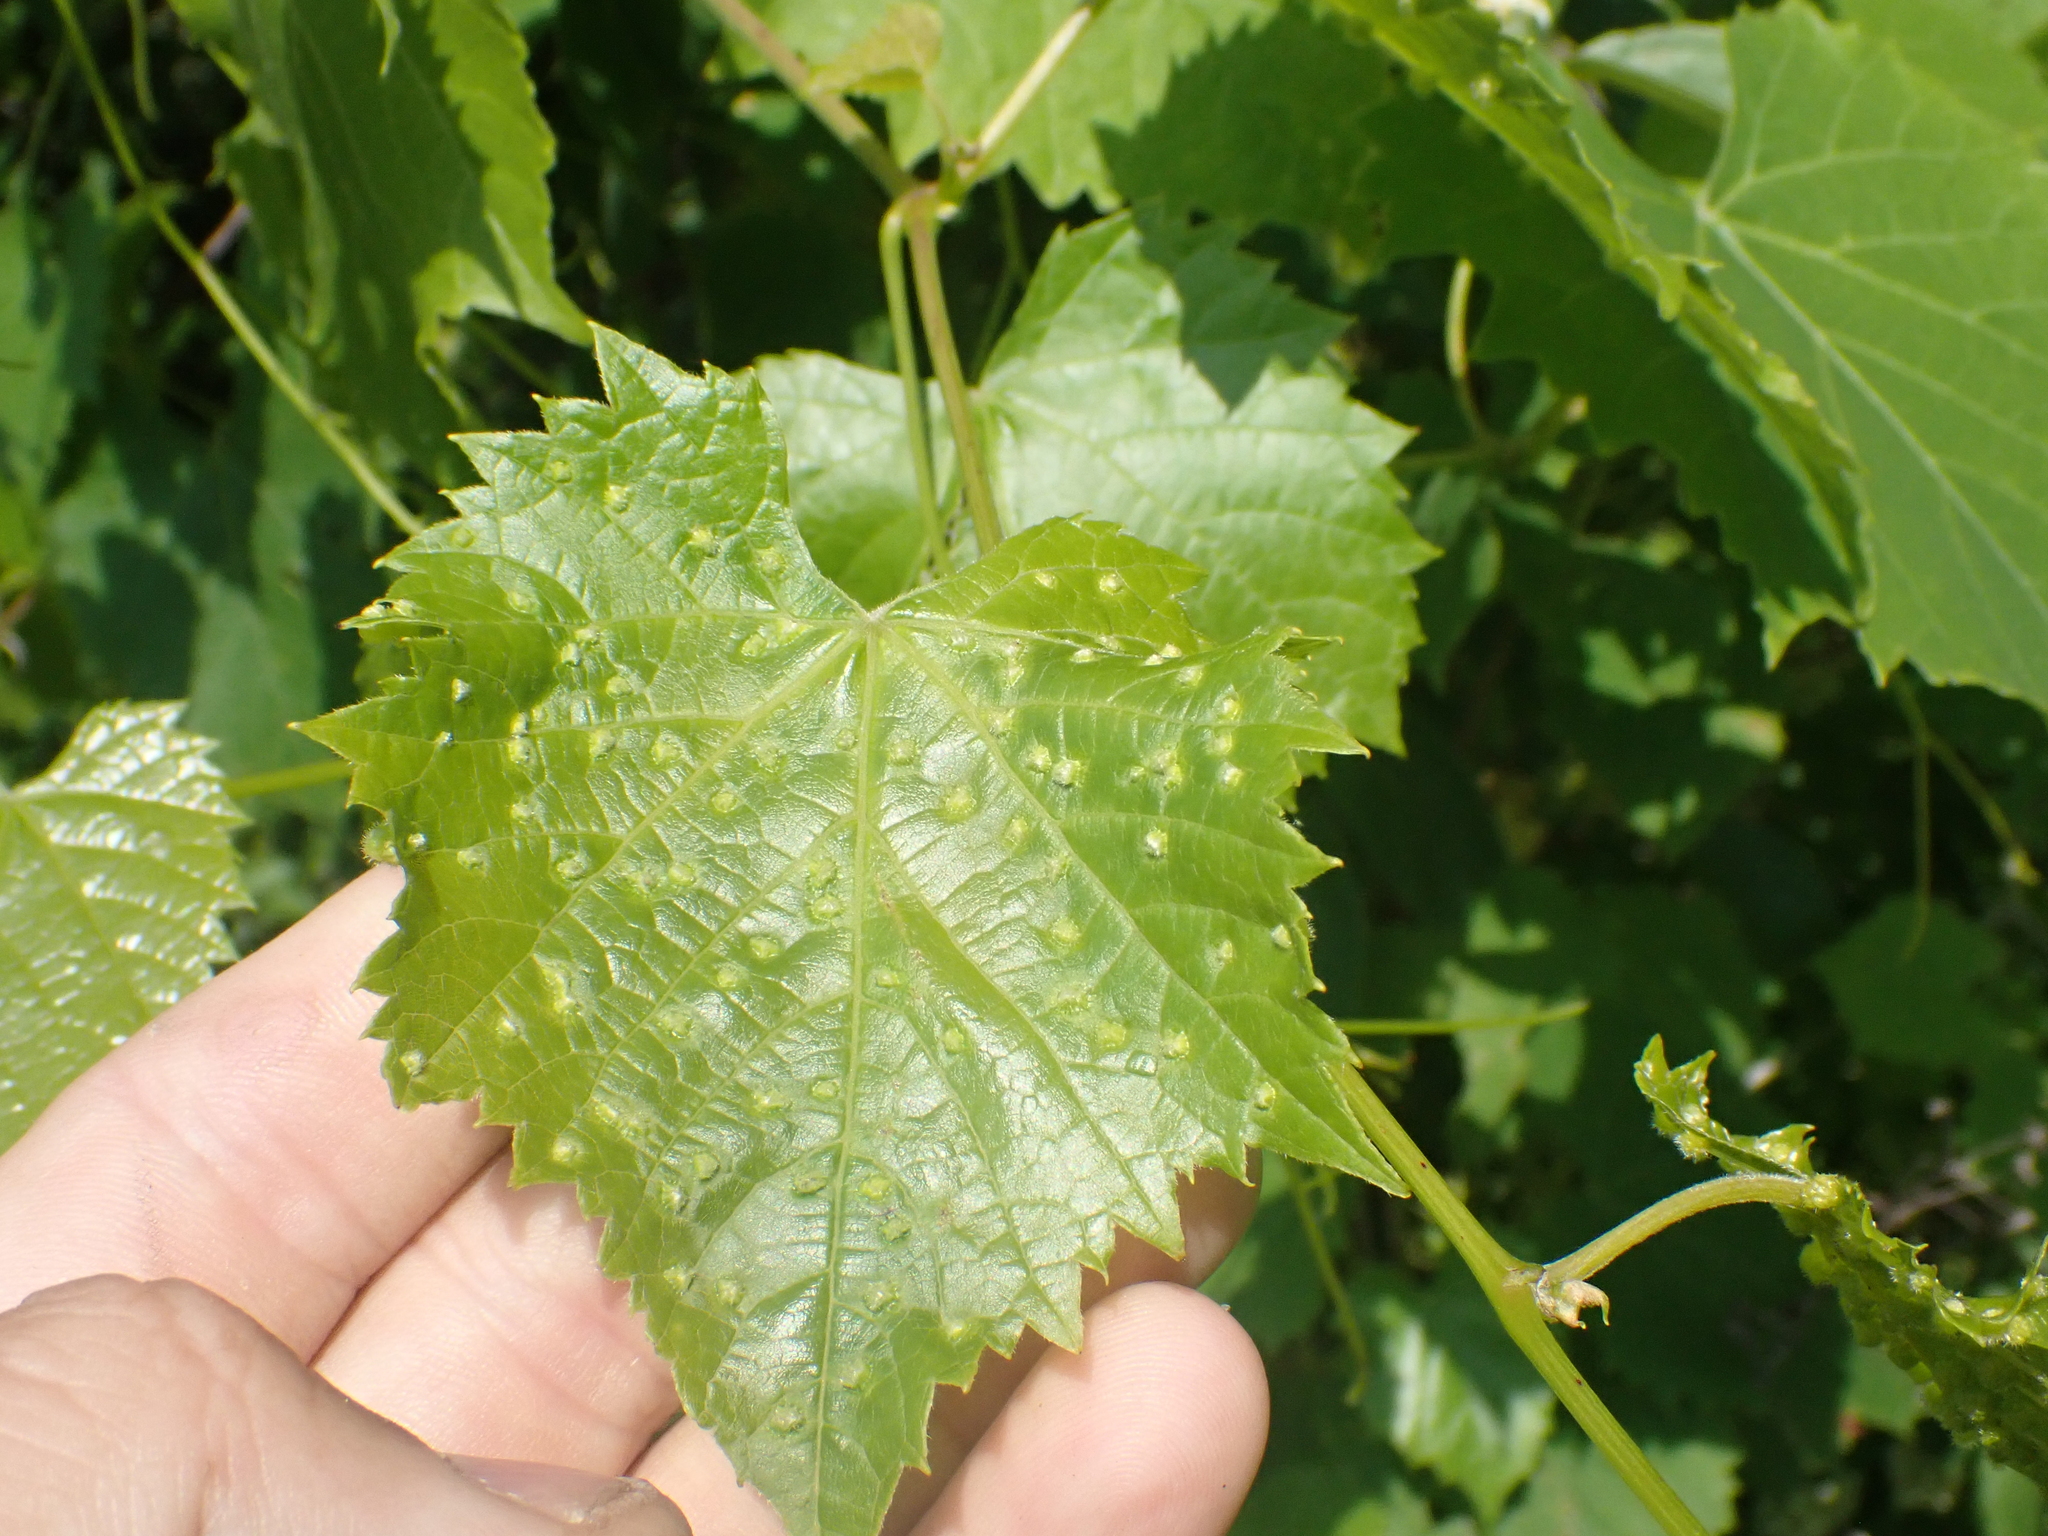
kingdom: Animalia
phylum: Arthropoda
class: Insecta
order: Hemiptera
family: Phylloxeridae
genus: Daktulosphaira
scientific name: Daktulosphaira vitifoliae
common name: Grape phylloxera
